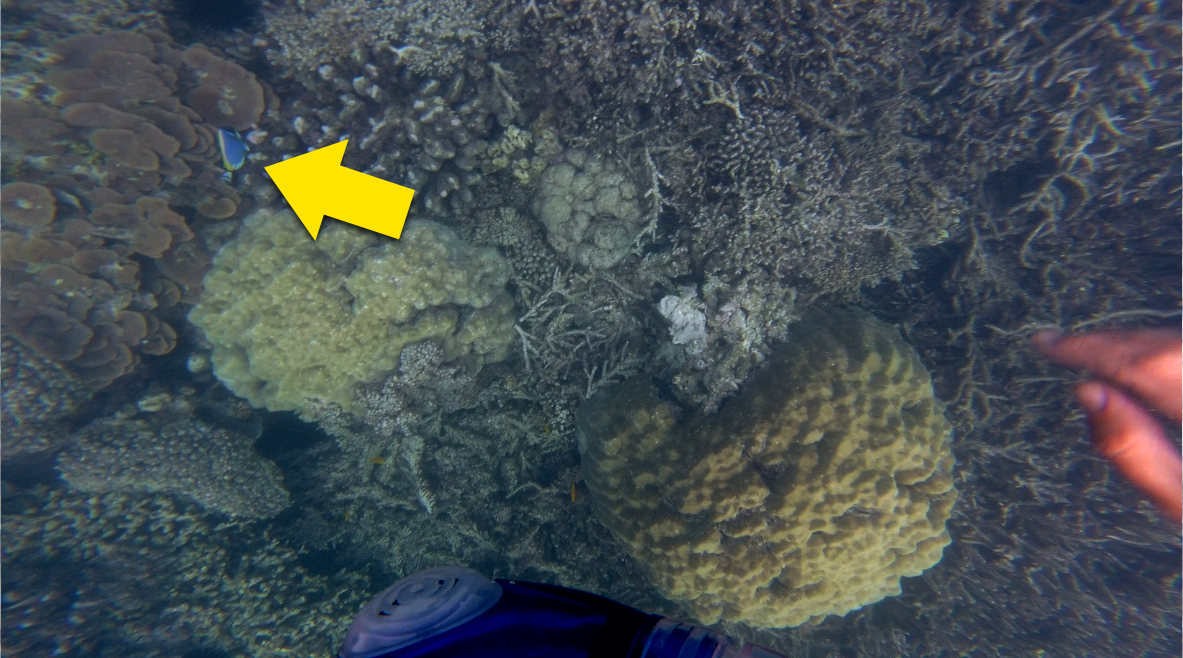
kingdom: Animalia
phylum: Chordata
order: Perciformes
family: Acanthuridae
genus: Acanthurus
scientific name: Acanthurus leucosternon
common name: Blue surgeonfish
